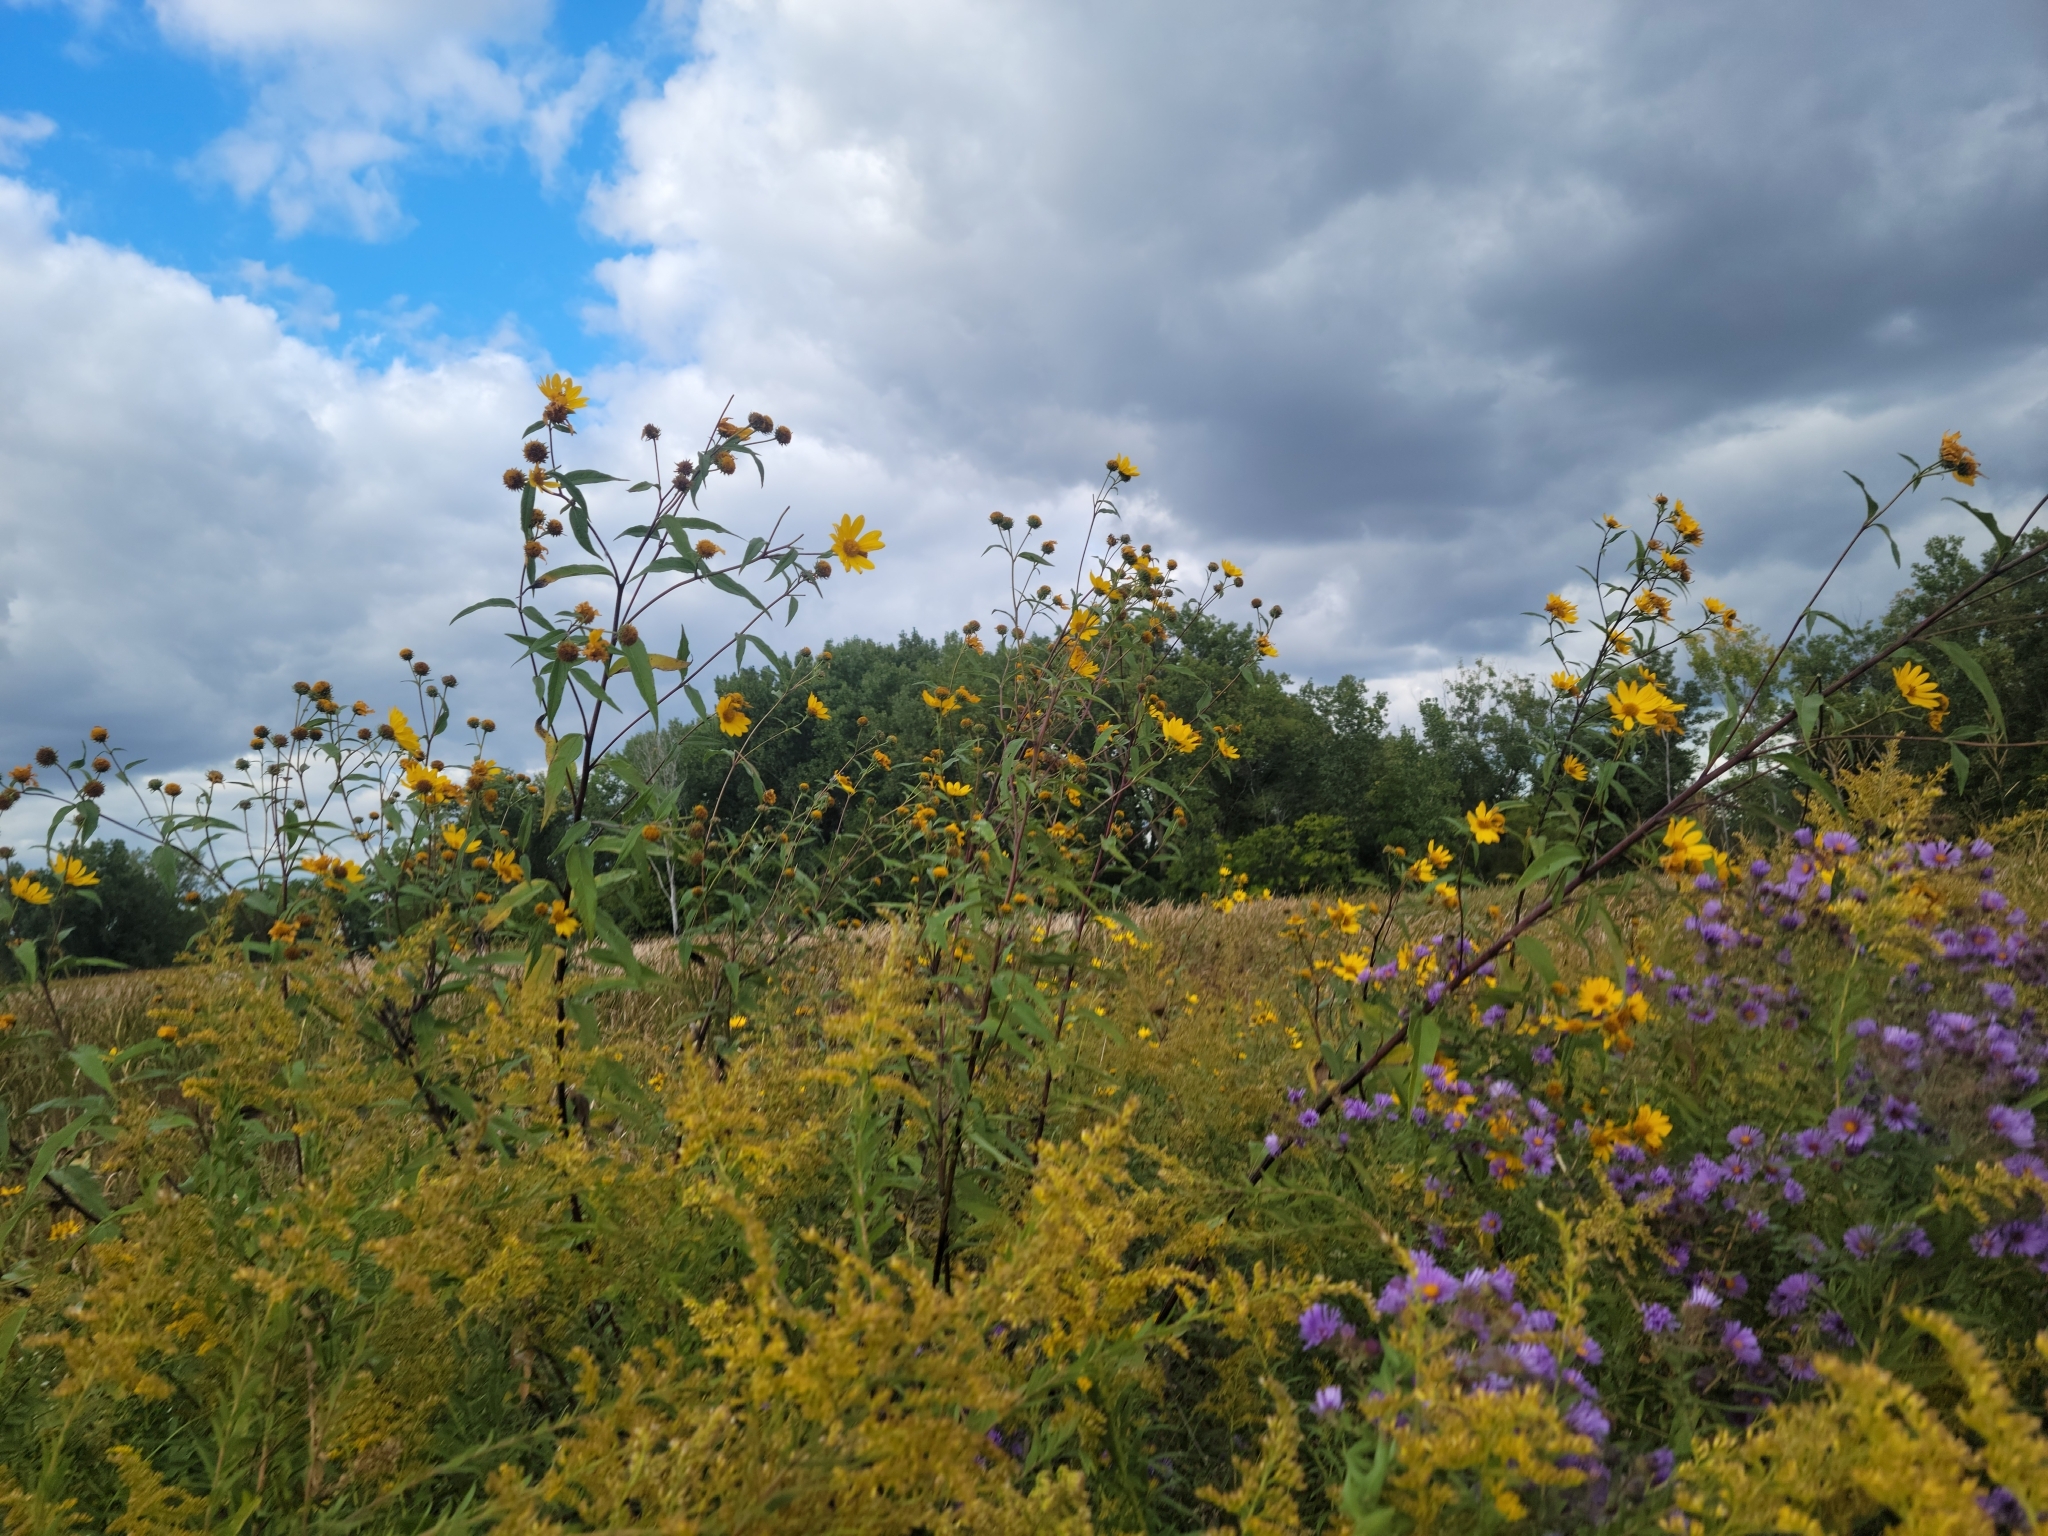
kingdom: Plantae
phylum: Tracheophyta
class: Magnoliopsida
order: Asterales
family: Asteraceae
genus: Helianthus
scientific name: Helianthus grosseserratus
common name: Sawtooth sunflower
